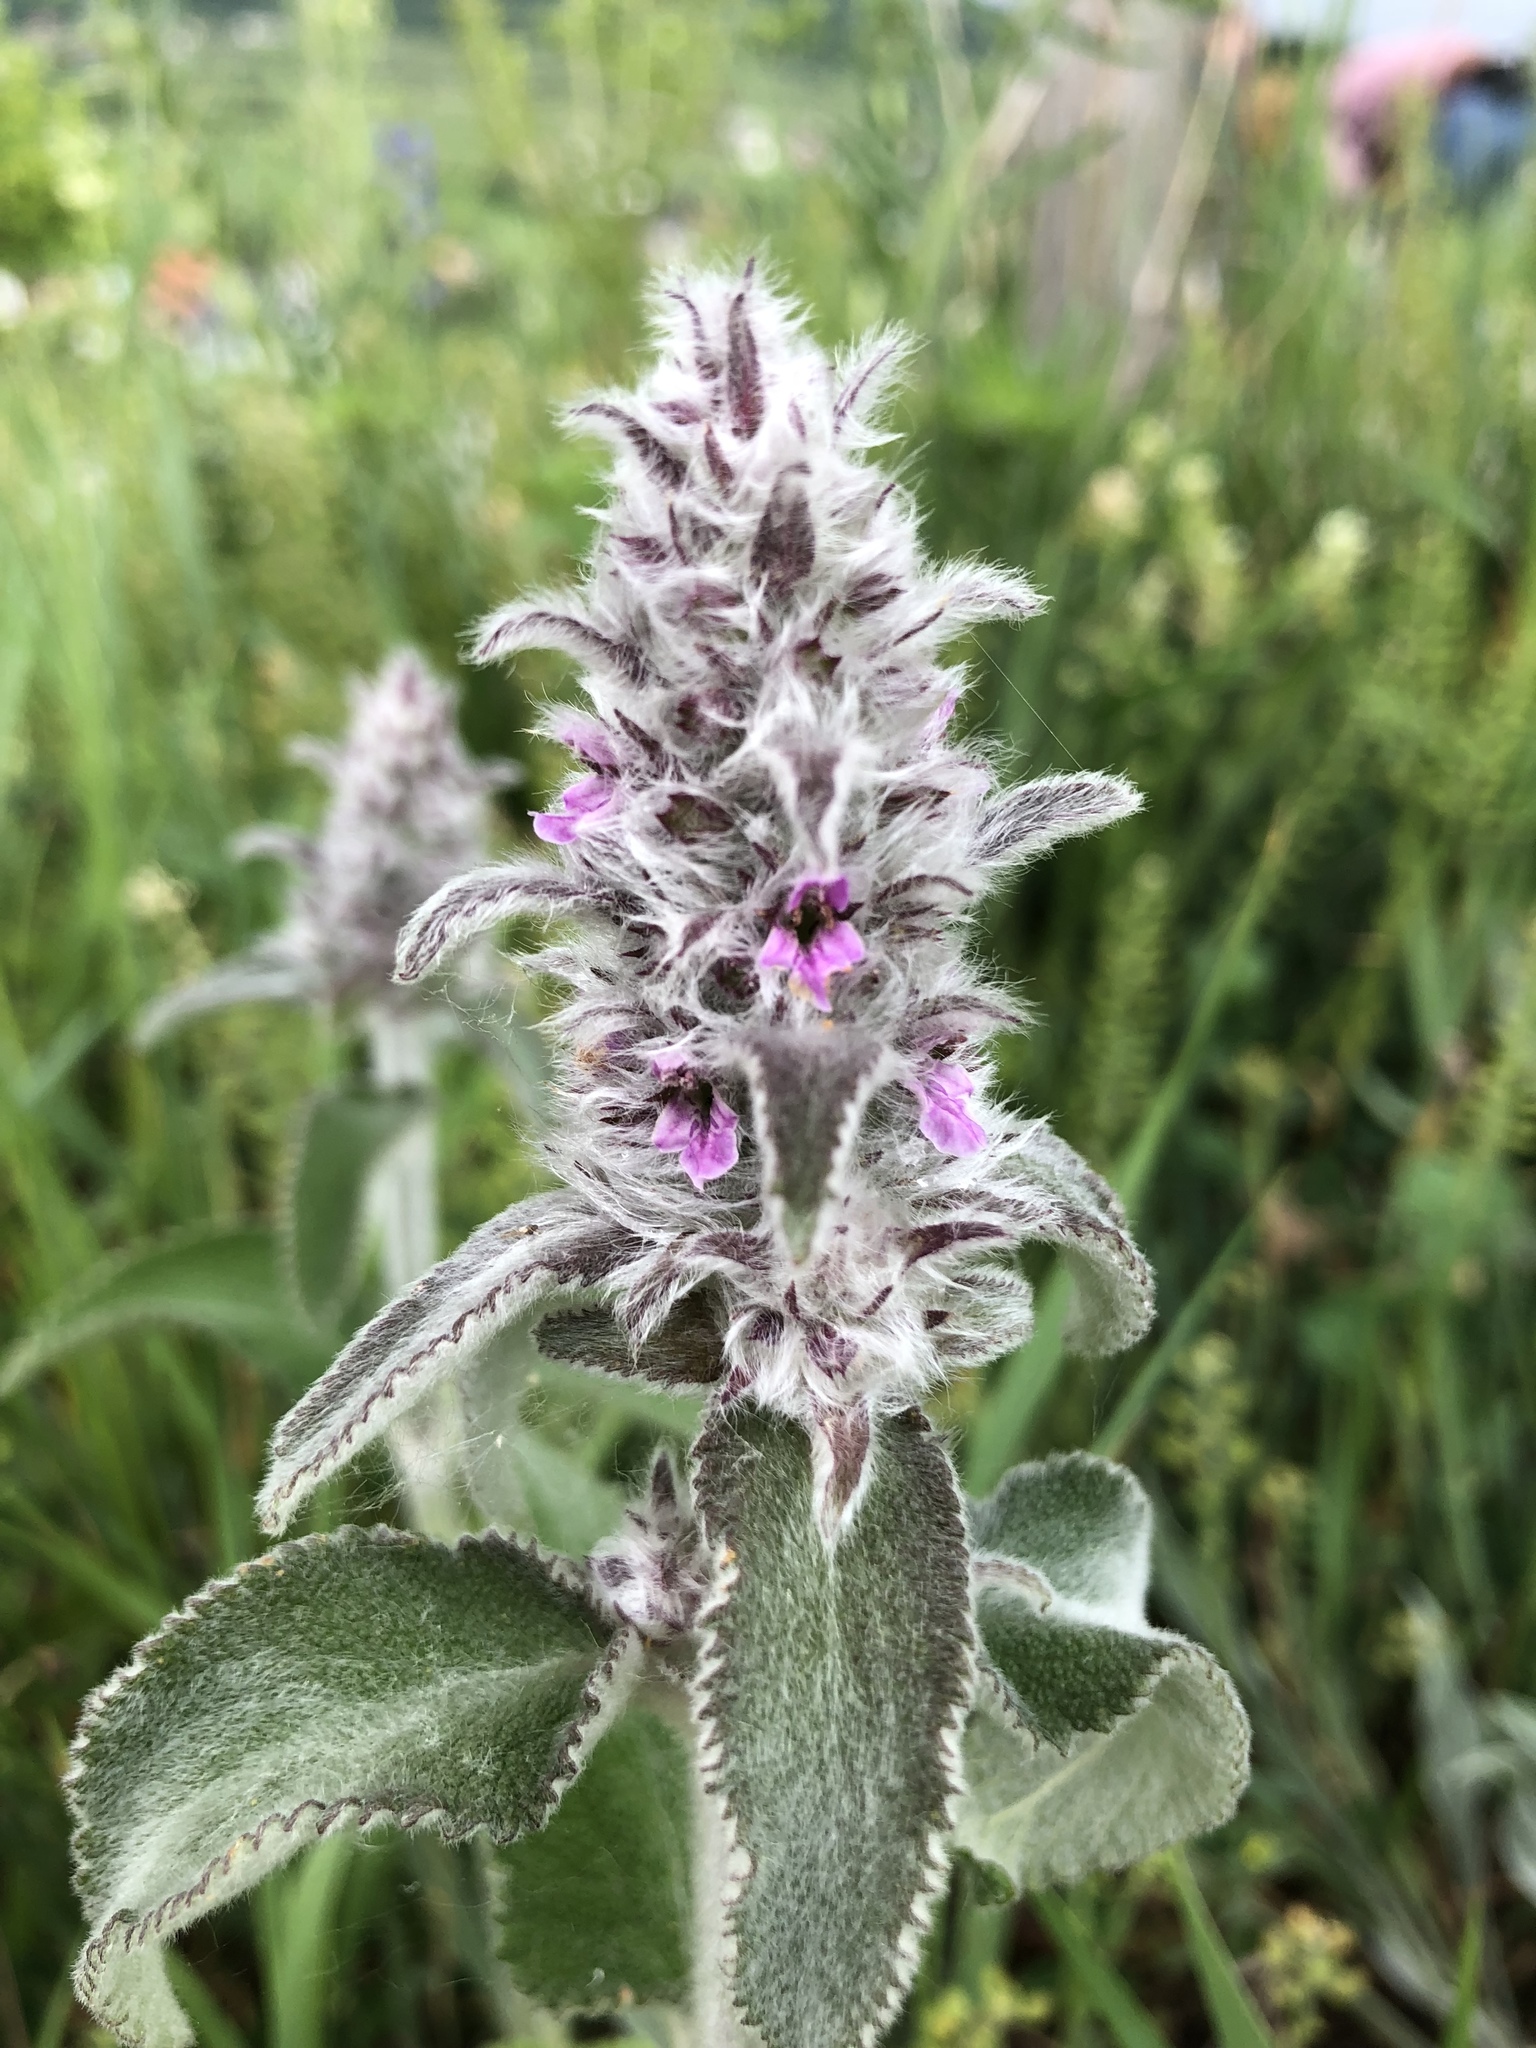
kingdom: Plantae
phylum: Tracheophyta
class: Magnoliopsida
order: Lamiales
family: Lamiaceae
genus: Stachys
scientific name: Stachys byzantina
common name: Lamb's-ear
